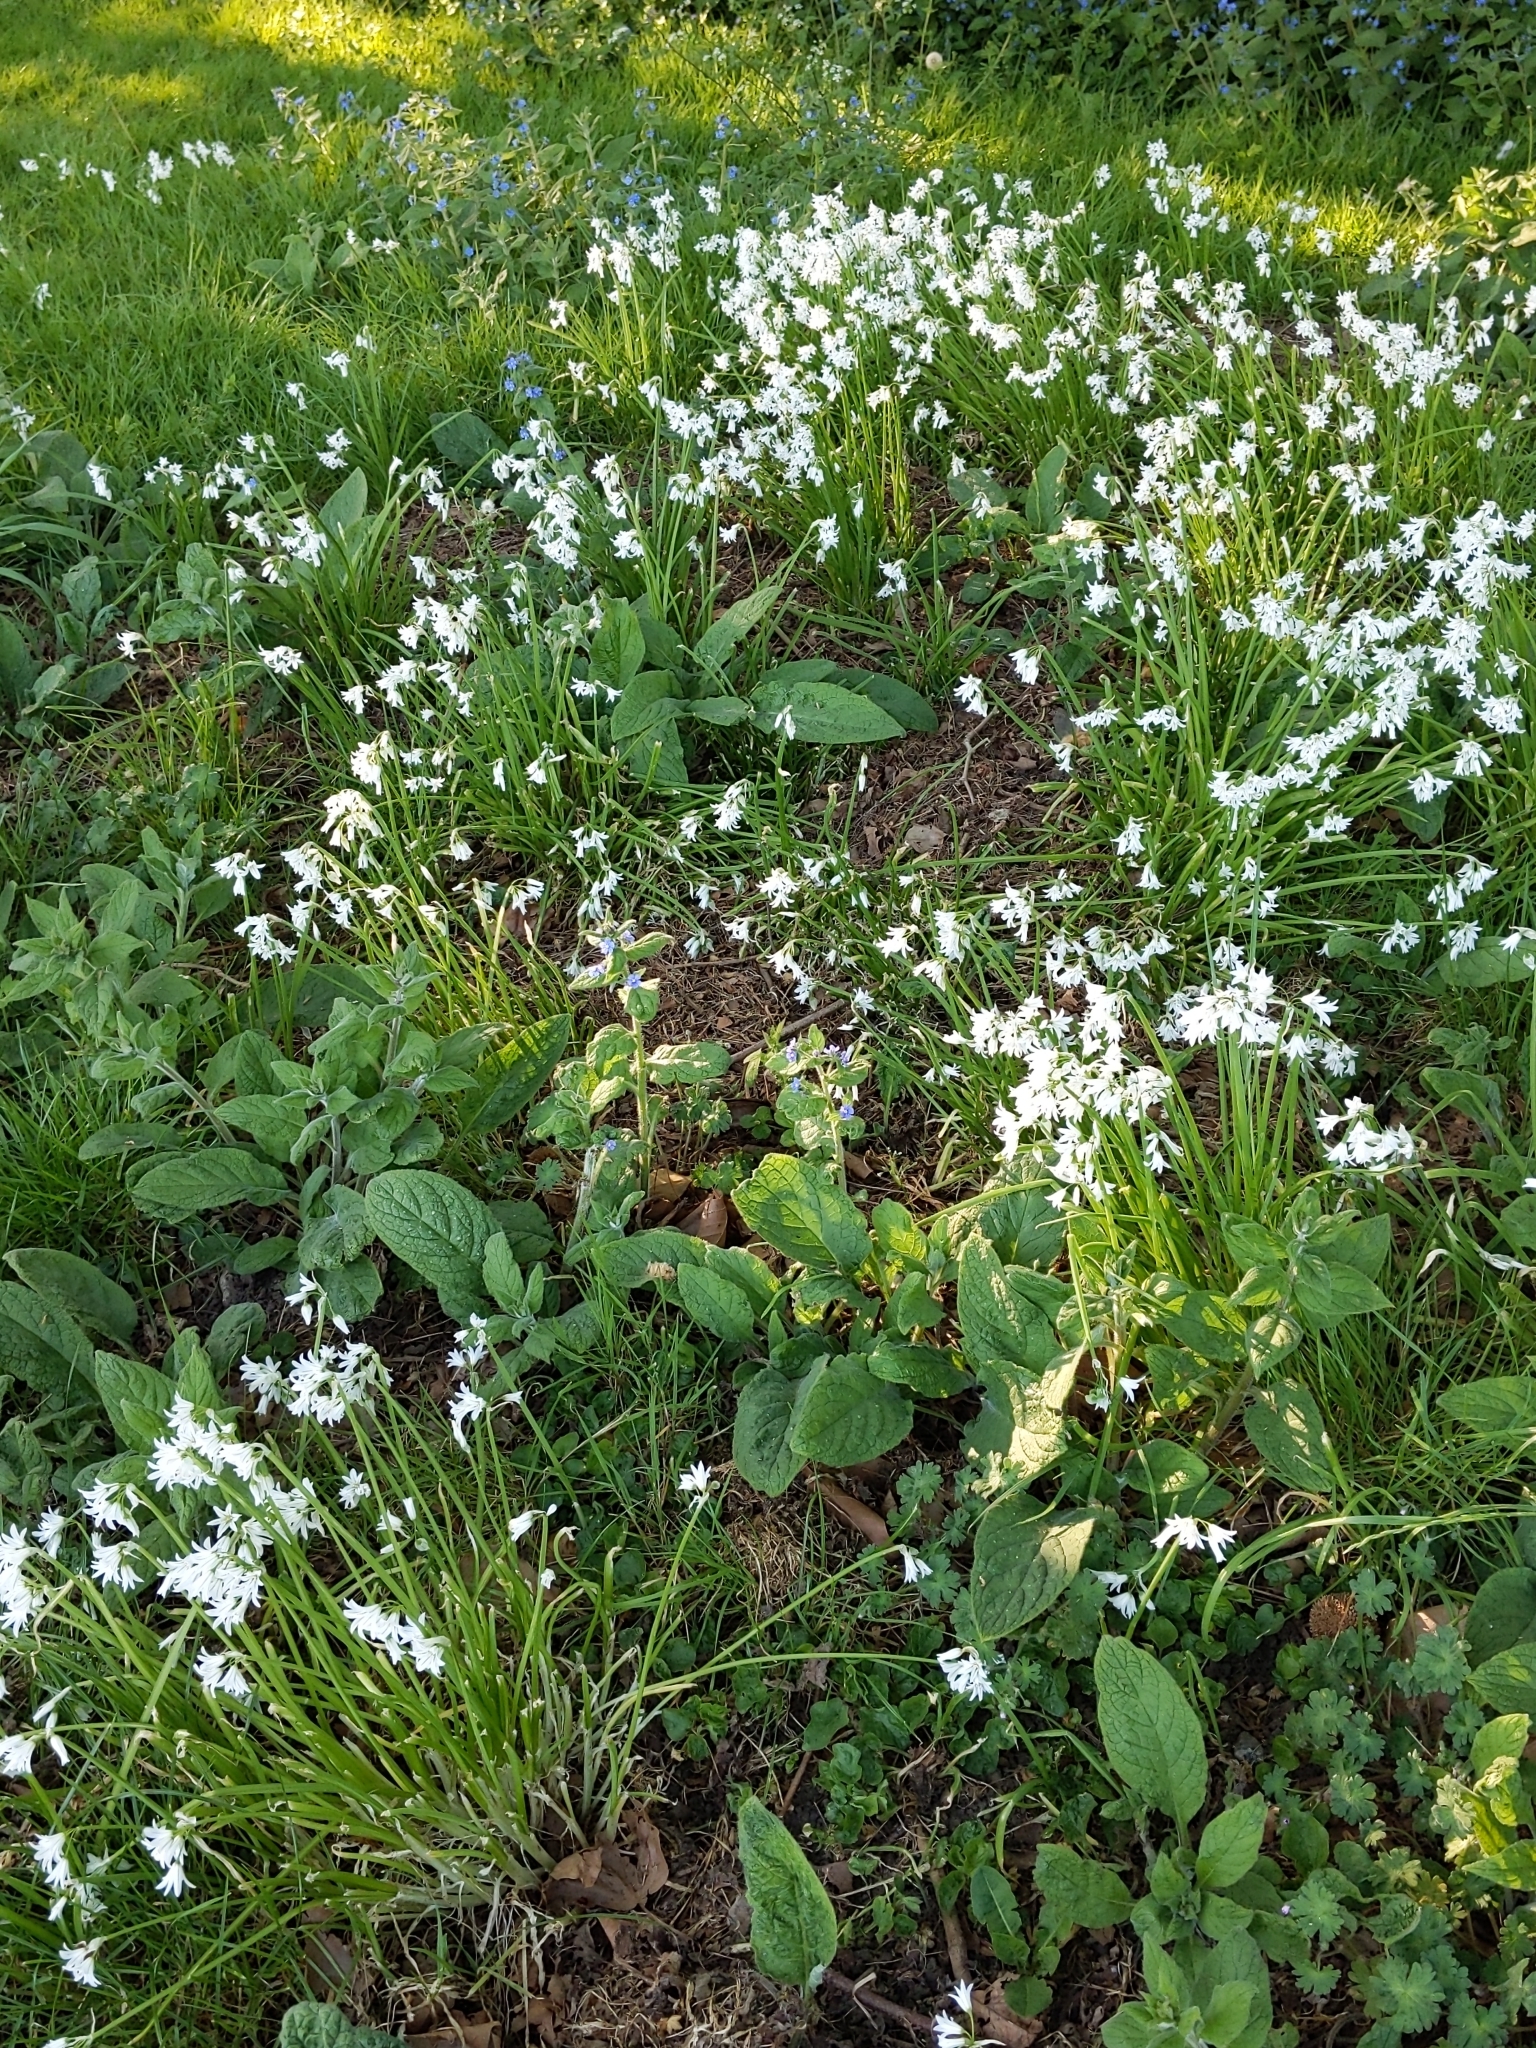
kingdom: Plantae
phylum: Tracheophyta
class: Liliopsida
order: Asparagales
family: Amaryllidaceae
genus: Allium
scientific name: Allium triquetrum
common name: Three-cornered garlic
